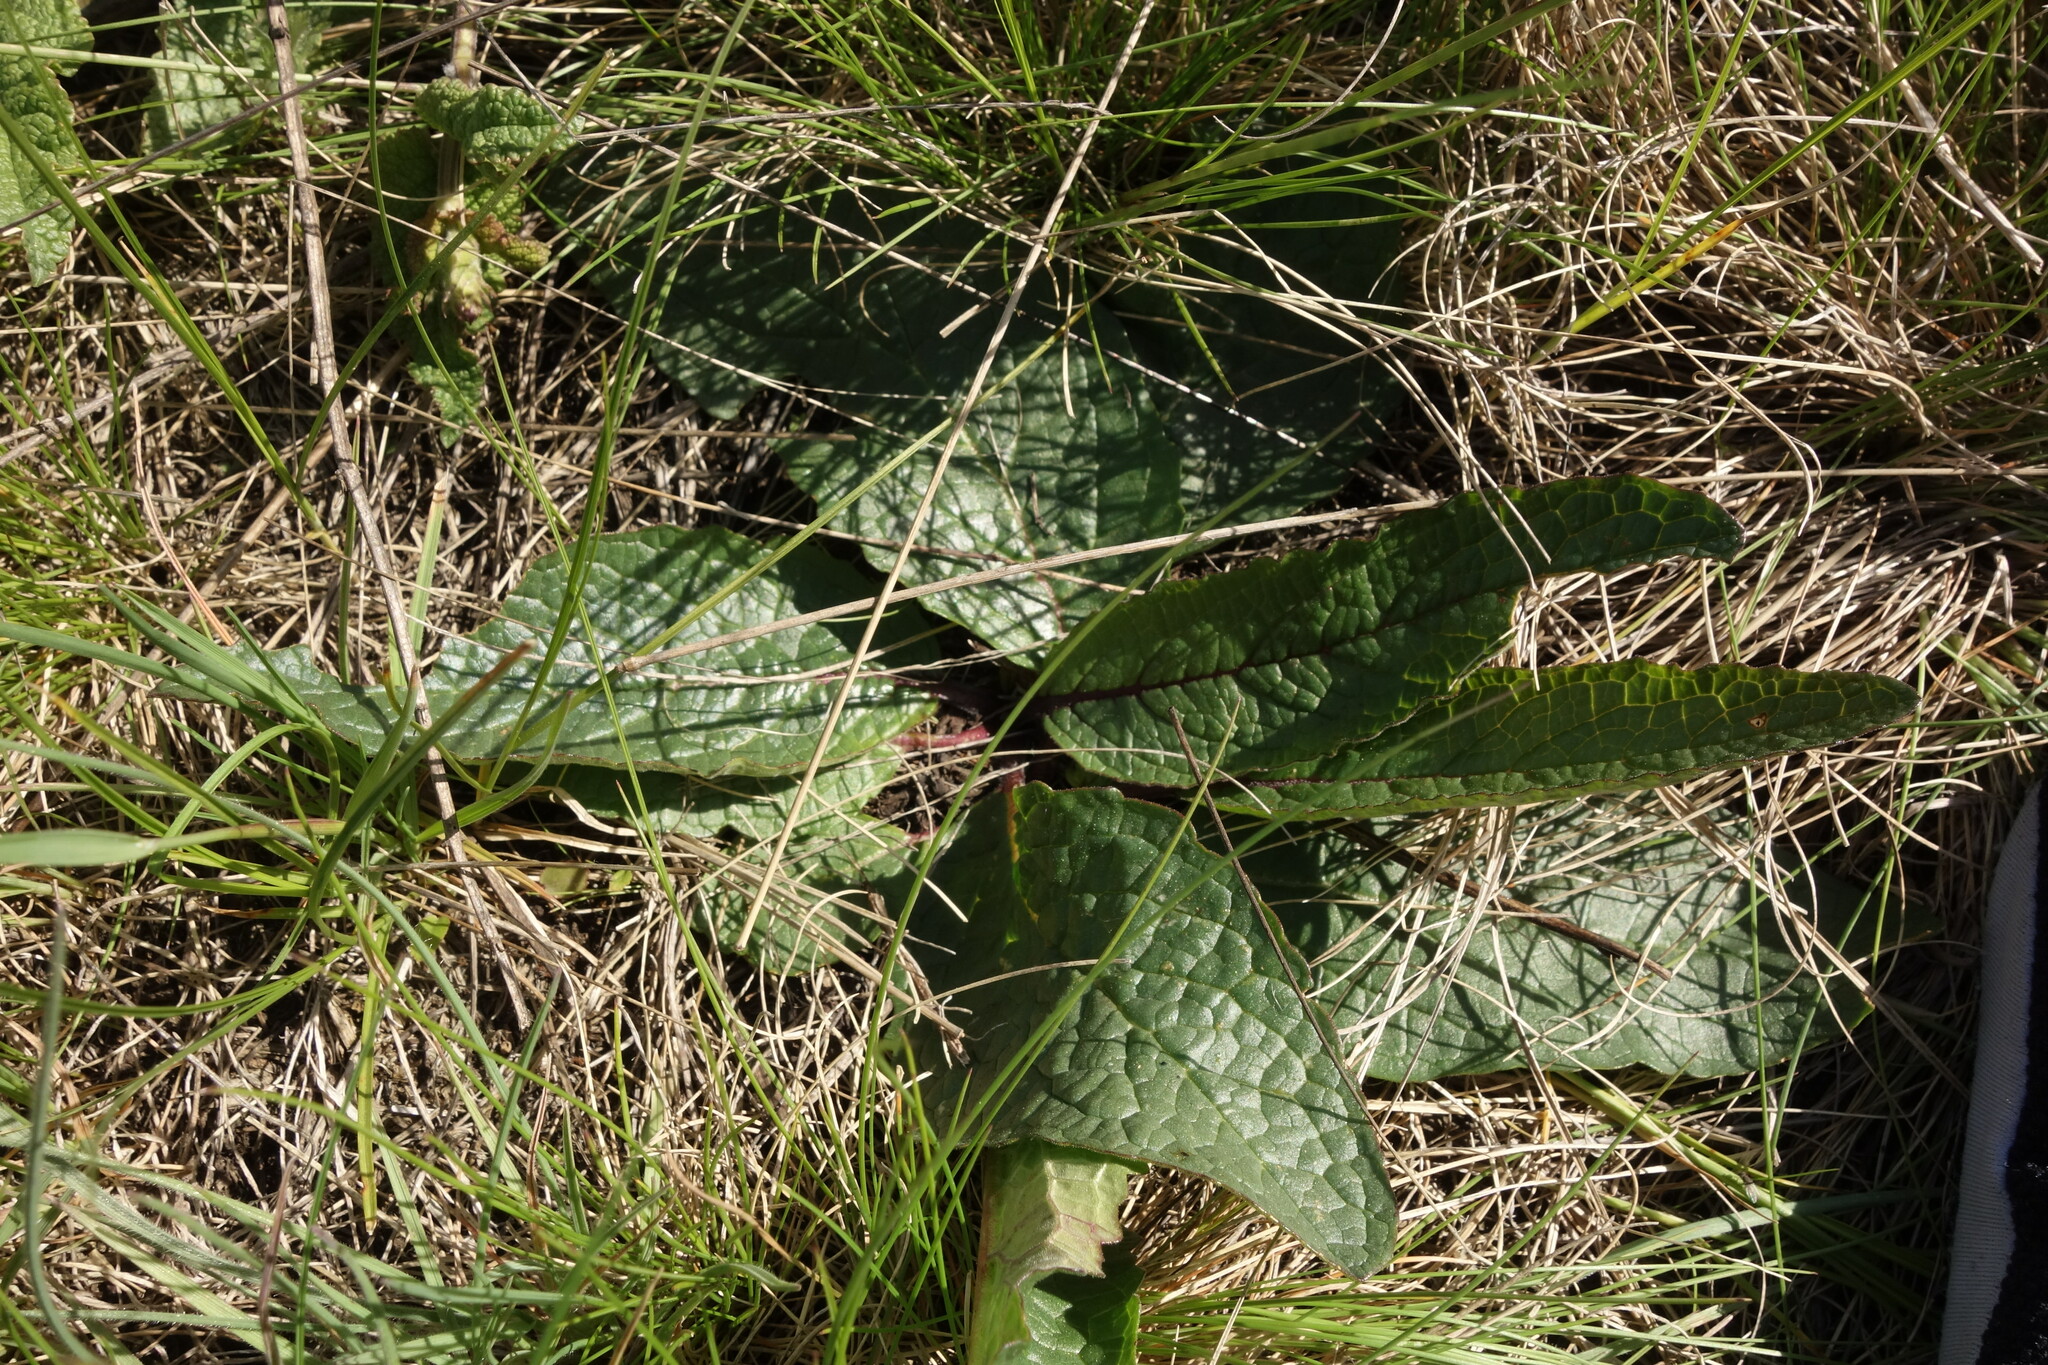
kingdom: Plantae
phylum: Tracheophyta
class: Magnoliopsida
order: Lamiales
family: Scrophulariaceae
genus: Verbascum
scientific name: Verbascum phoeniceum
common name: Purple mullein
